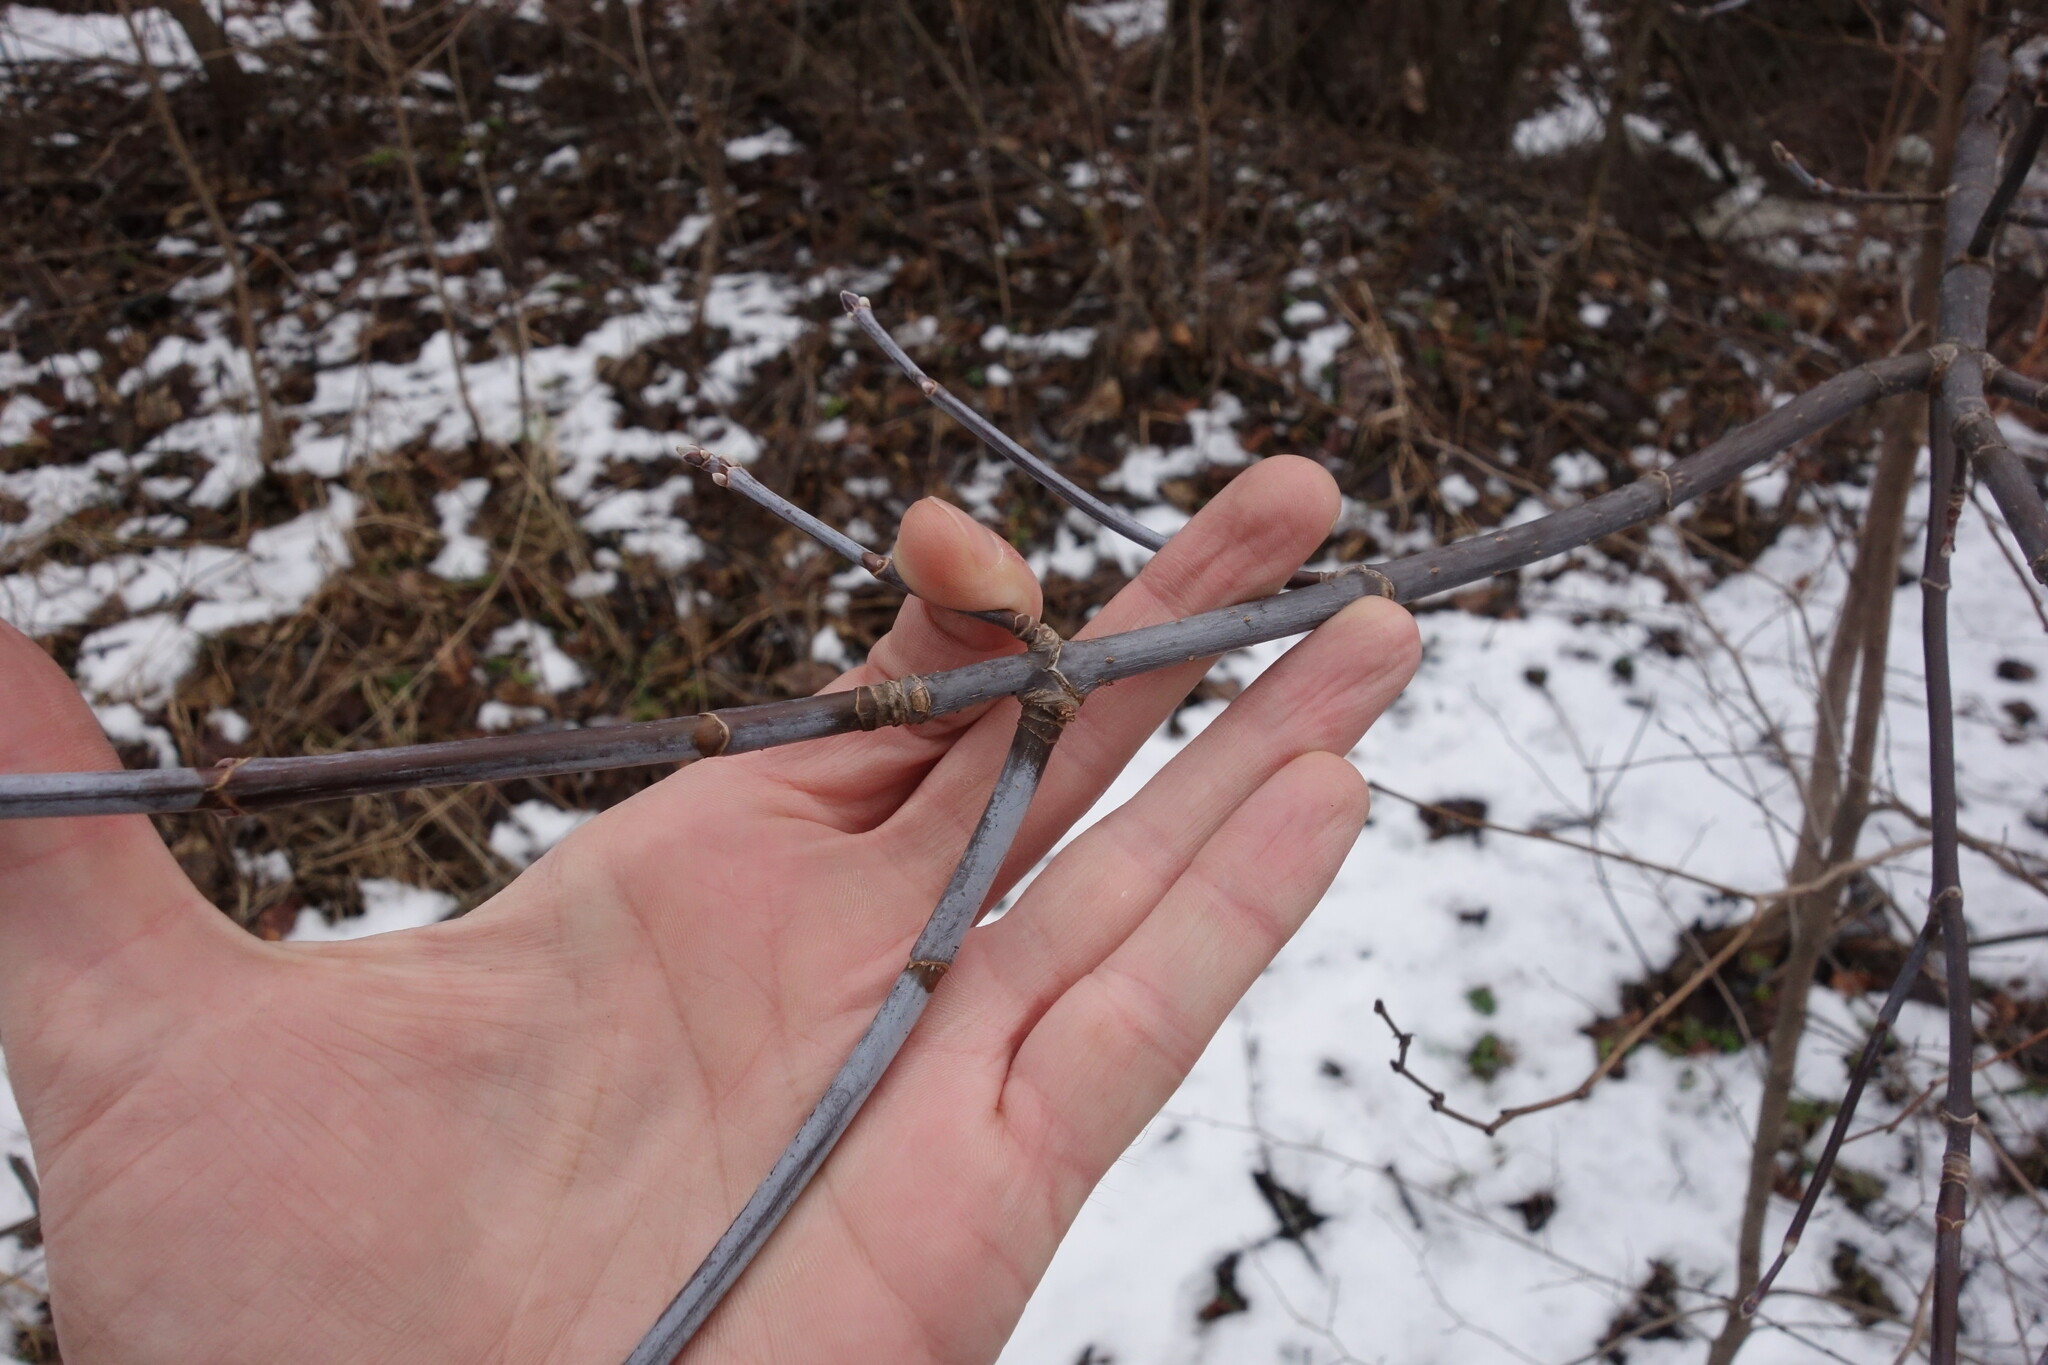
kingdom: Plantae
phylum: Tracheophyta
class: Magnoliopsida
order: Sapindales
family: Sapindaceae
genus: Acer
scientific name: Acer negundo
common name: Ashleaf maple
